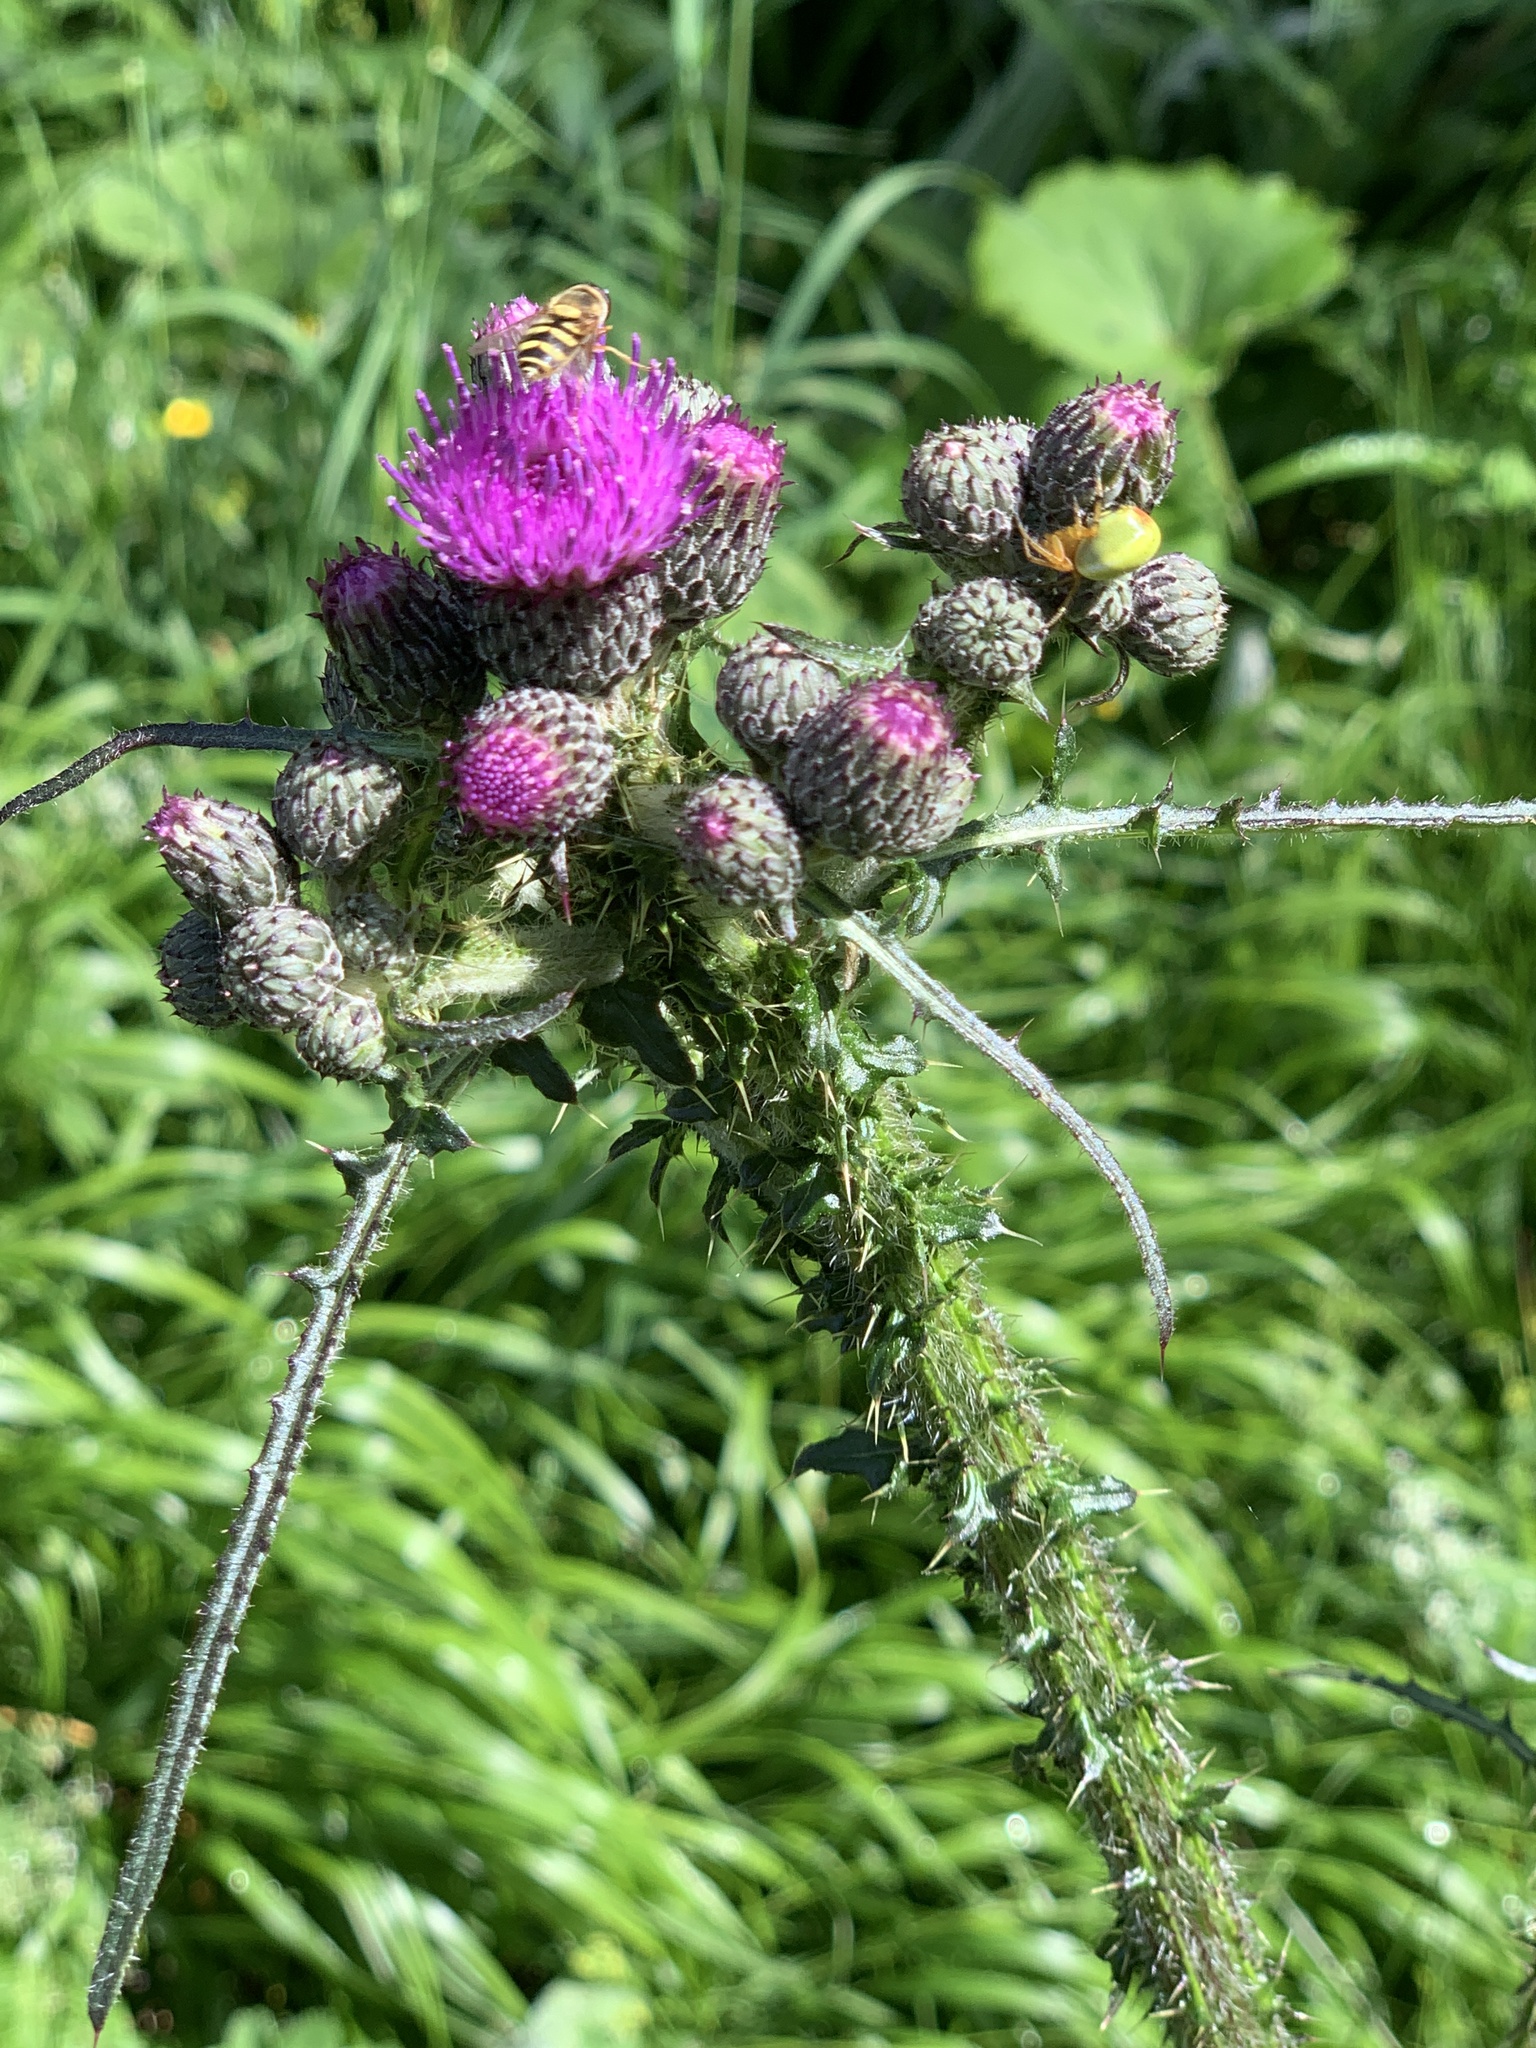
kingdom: Plantae
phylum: Tracheophyta
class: Magnoliopsida
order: Asterales
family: Asteraceae
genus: Cirsium
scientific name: Cirsium palustre
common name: Marsh thistle
